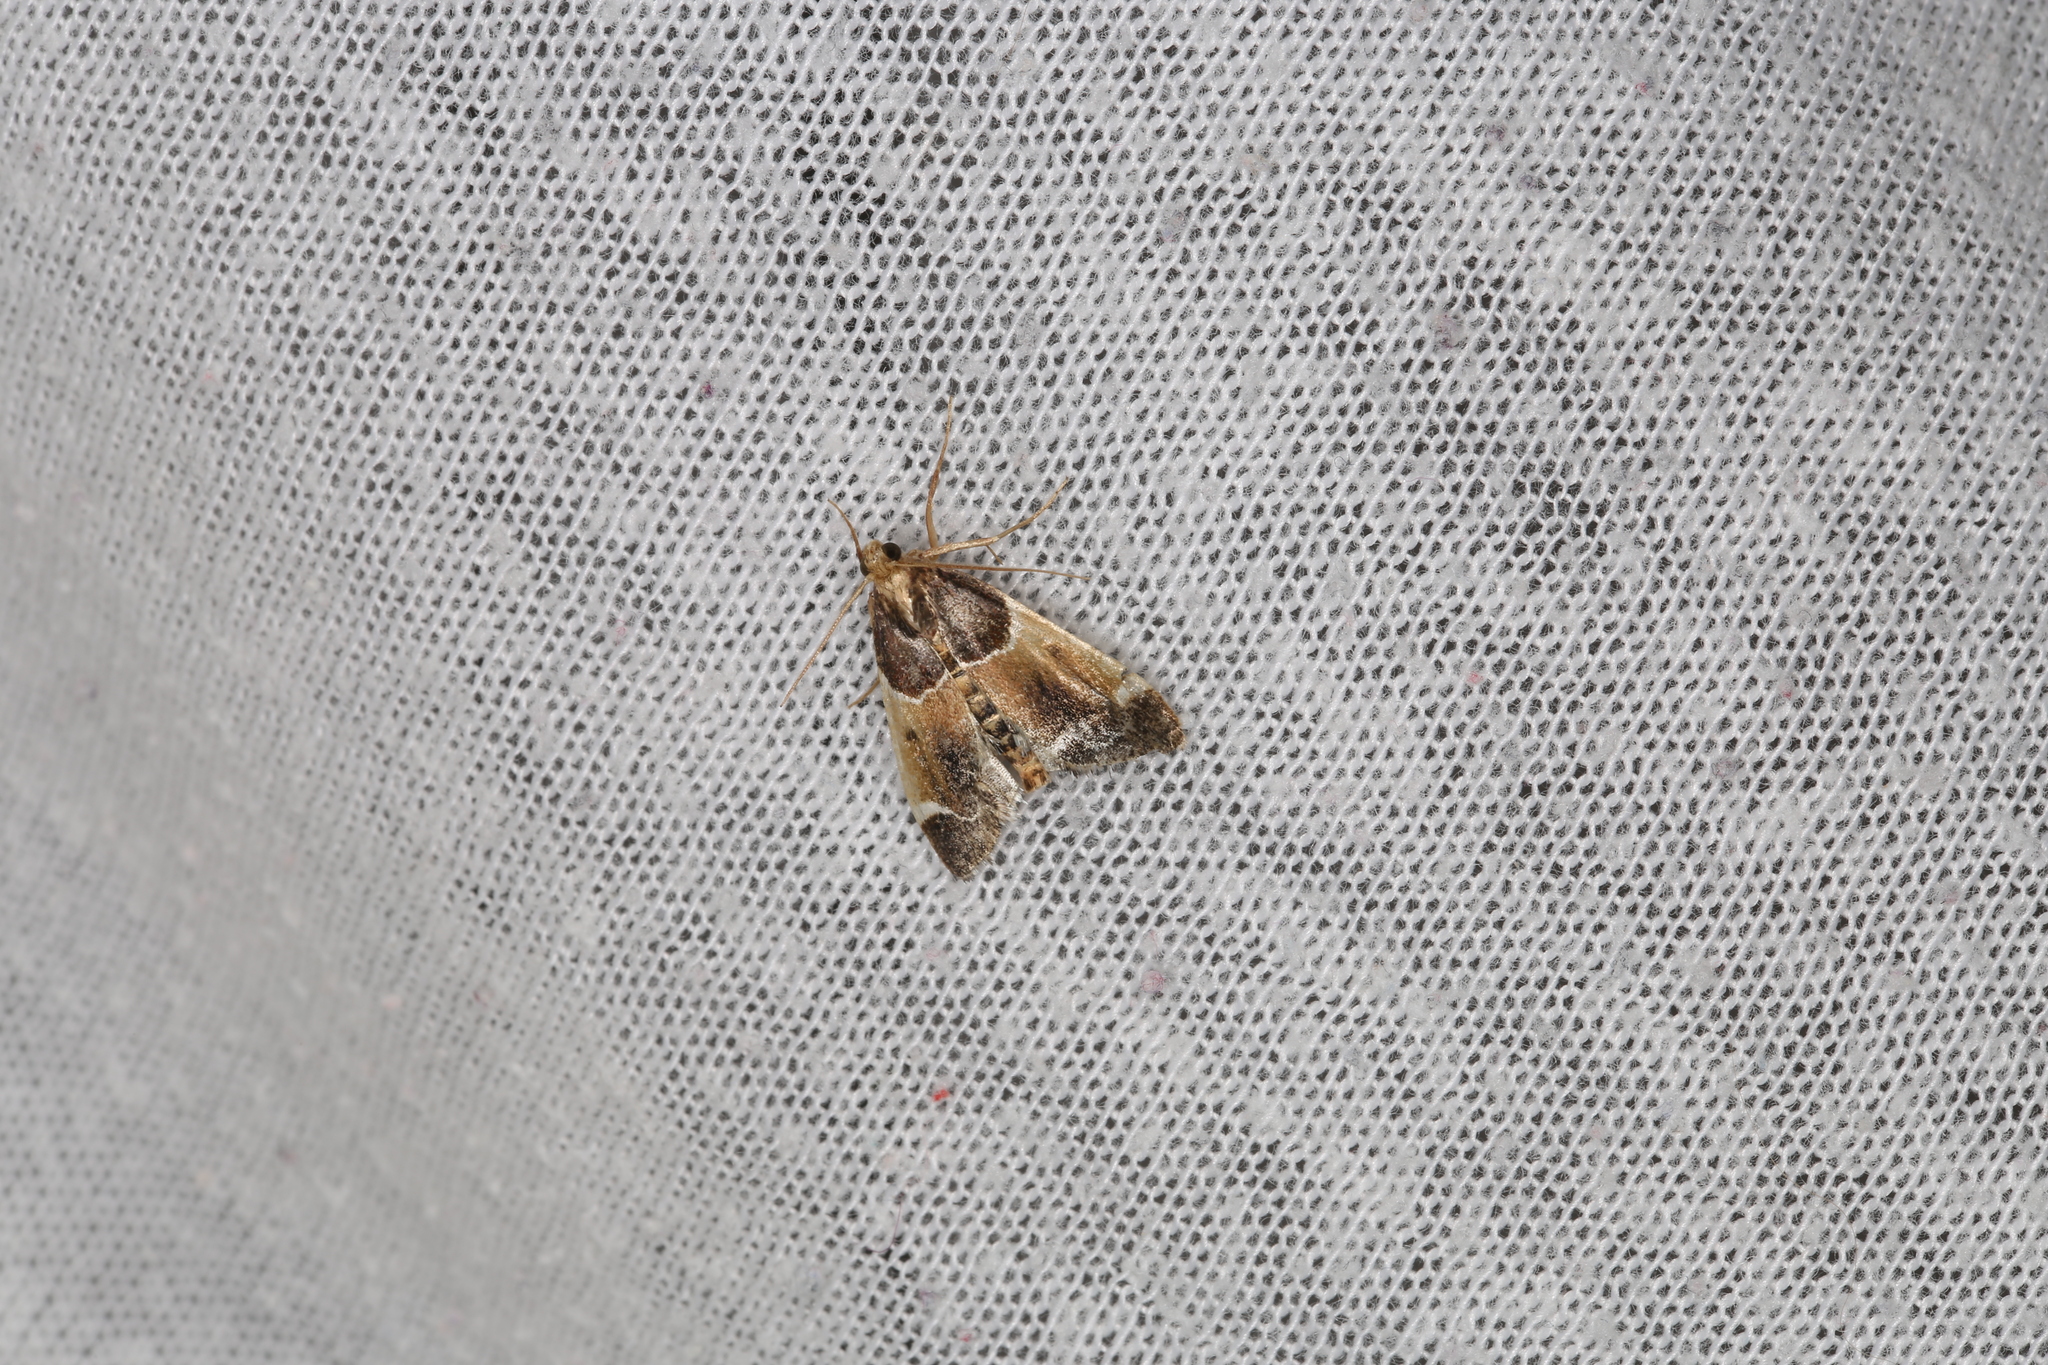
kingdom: Animalia
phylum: Arthropoda
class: Insecta
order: Lepidoptera
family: Pyralidae
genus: Pyralis
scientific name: Pyralis farinalis
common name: Meal moth
